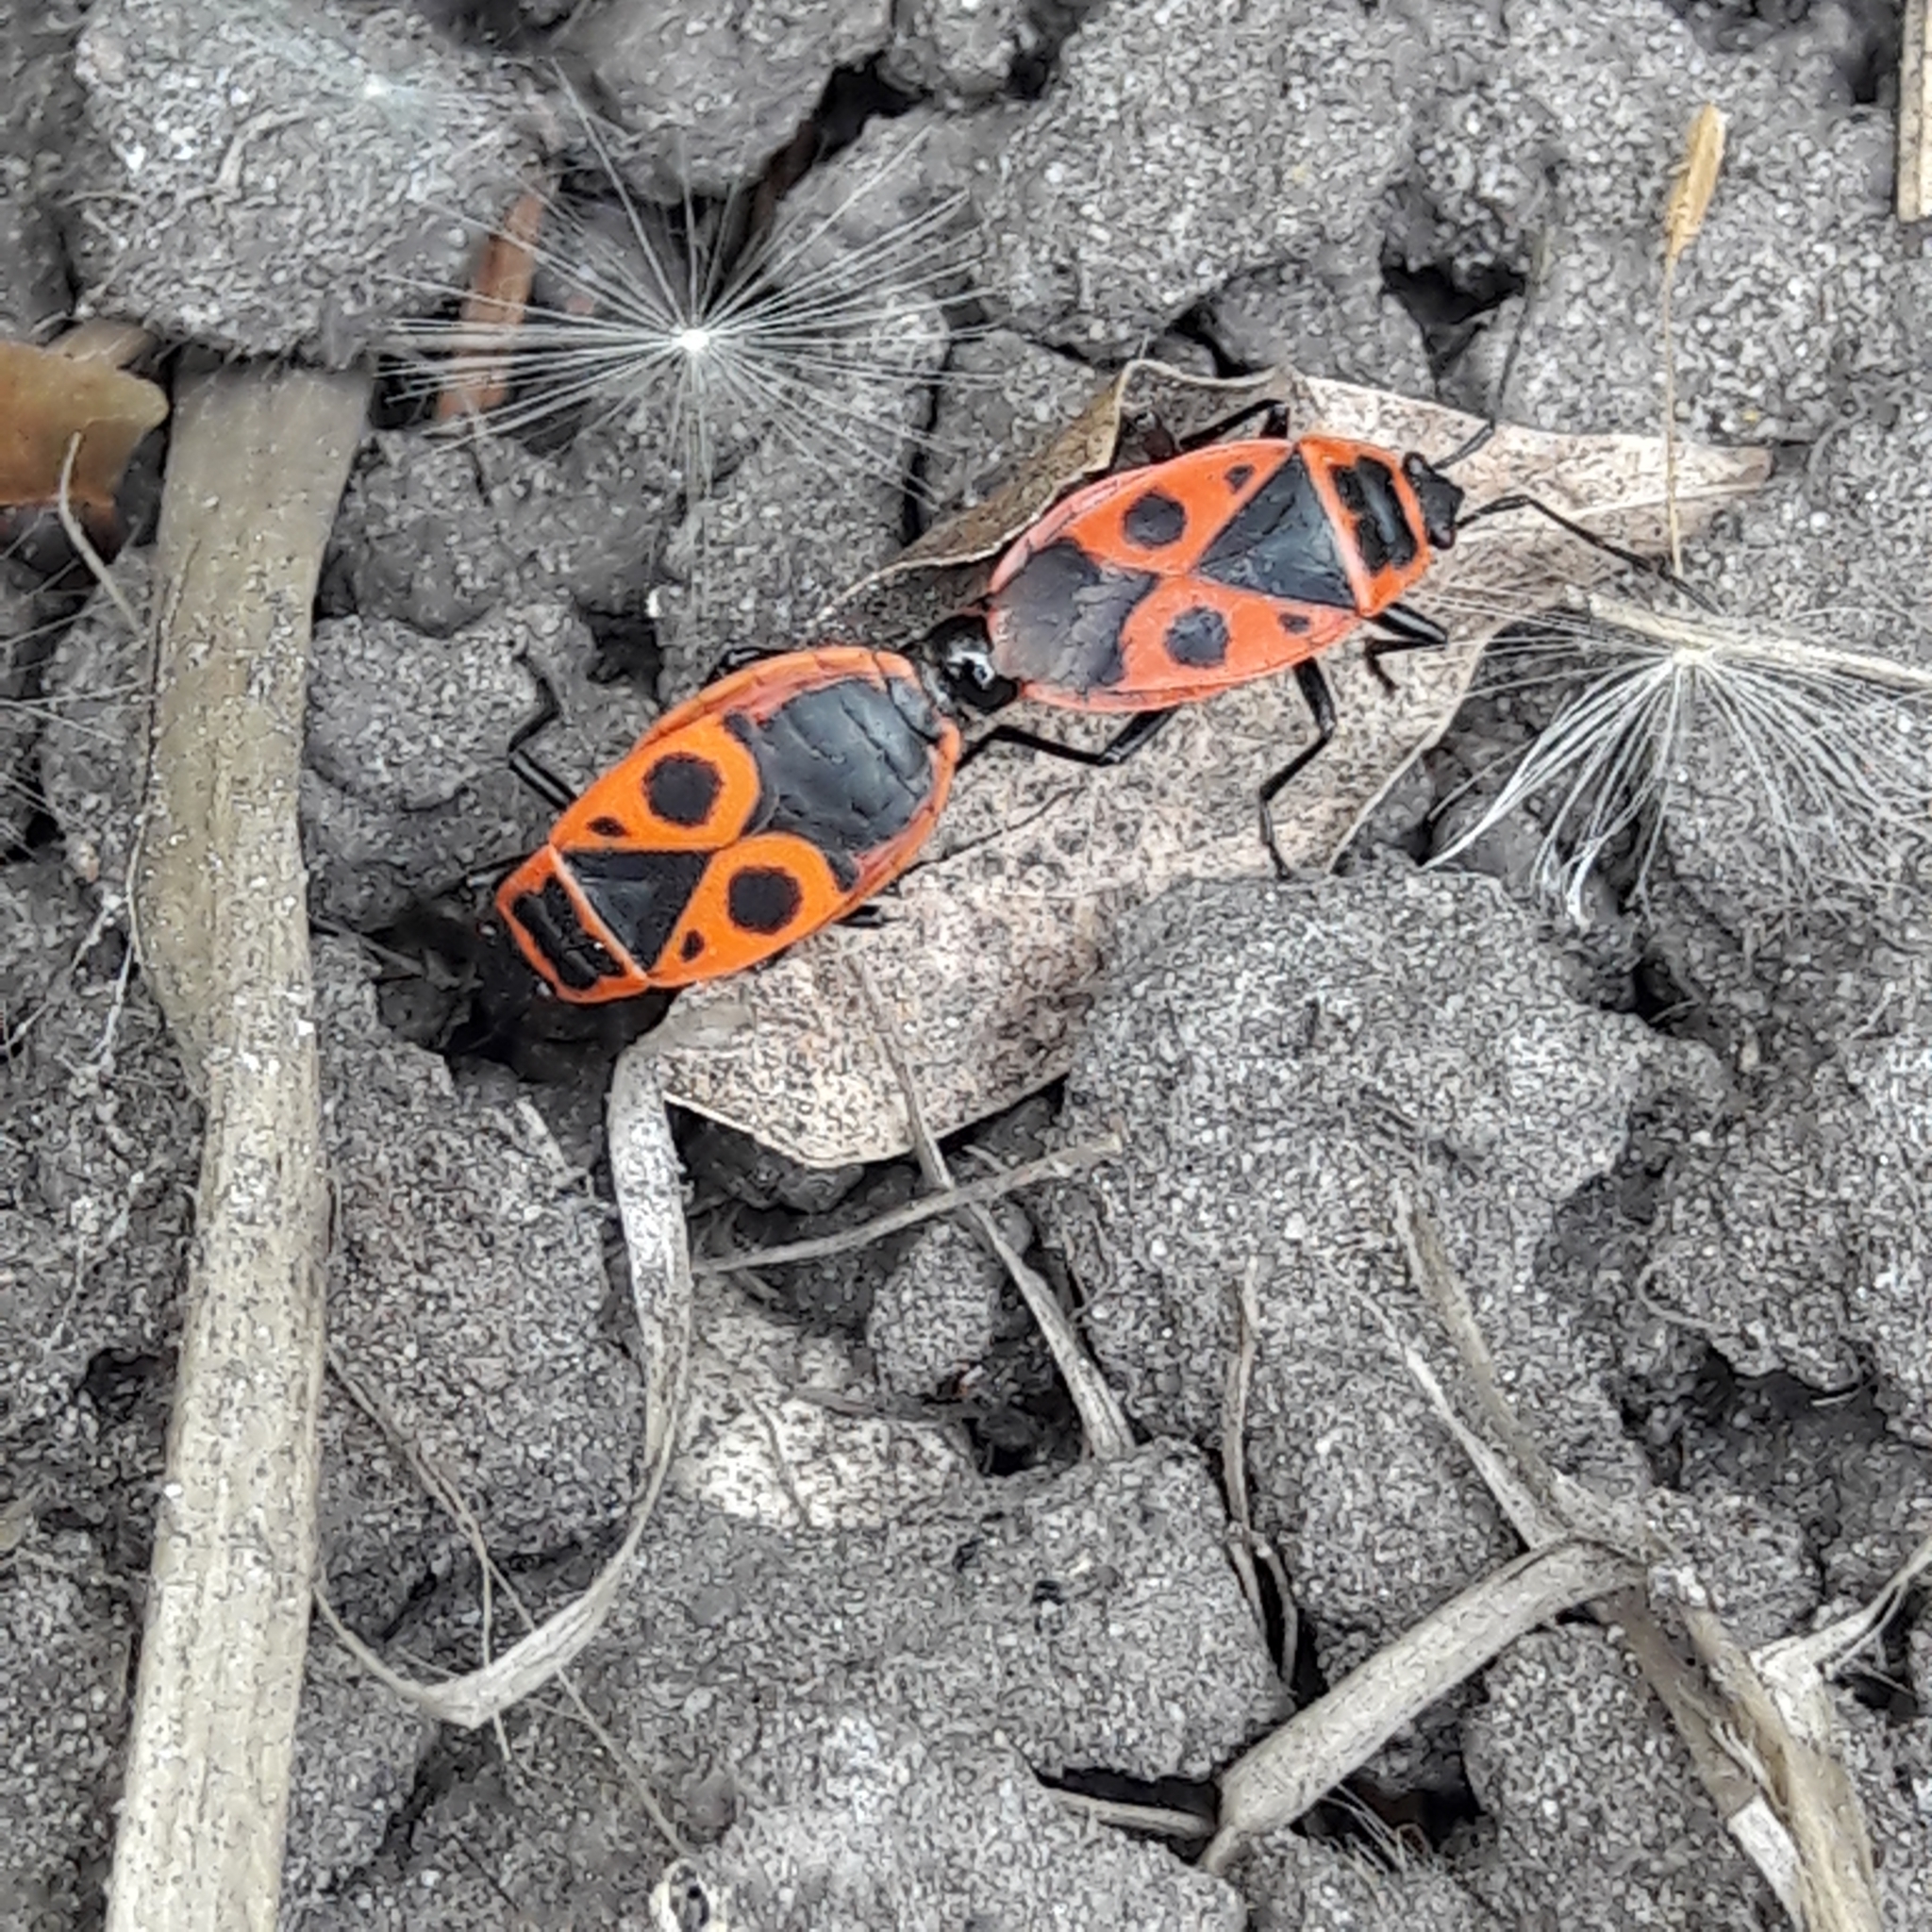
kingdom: Animalia
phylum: Arthropoda
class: Insecta
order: Hemiptera
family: Pyrrhocoridae
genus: Pyrrhocoris
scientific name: Pyrrhocoris apterus
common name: Firebug
